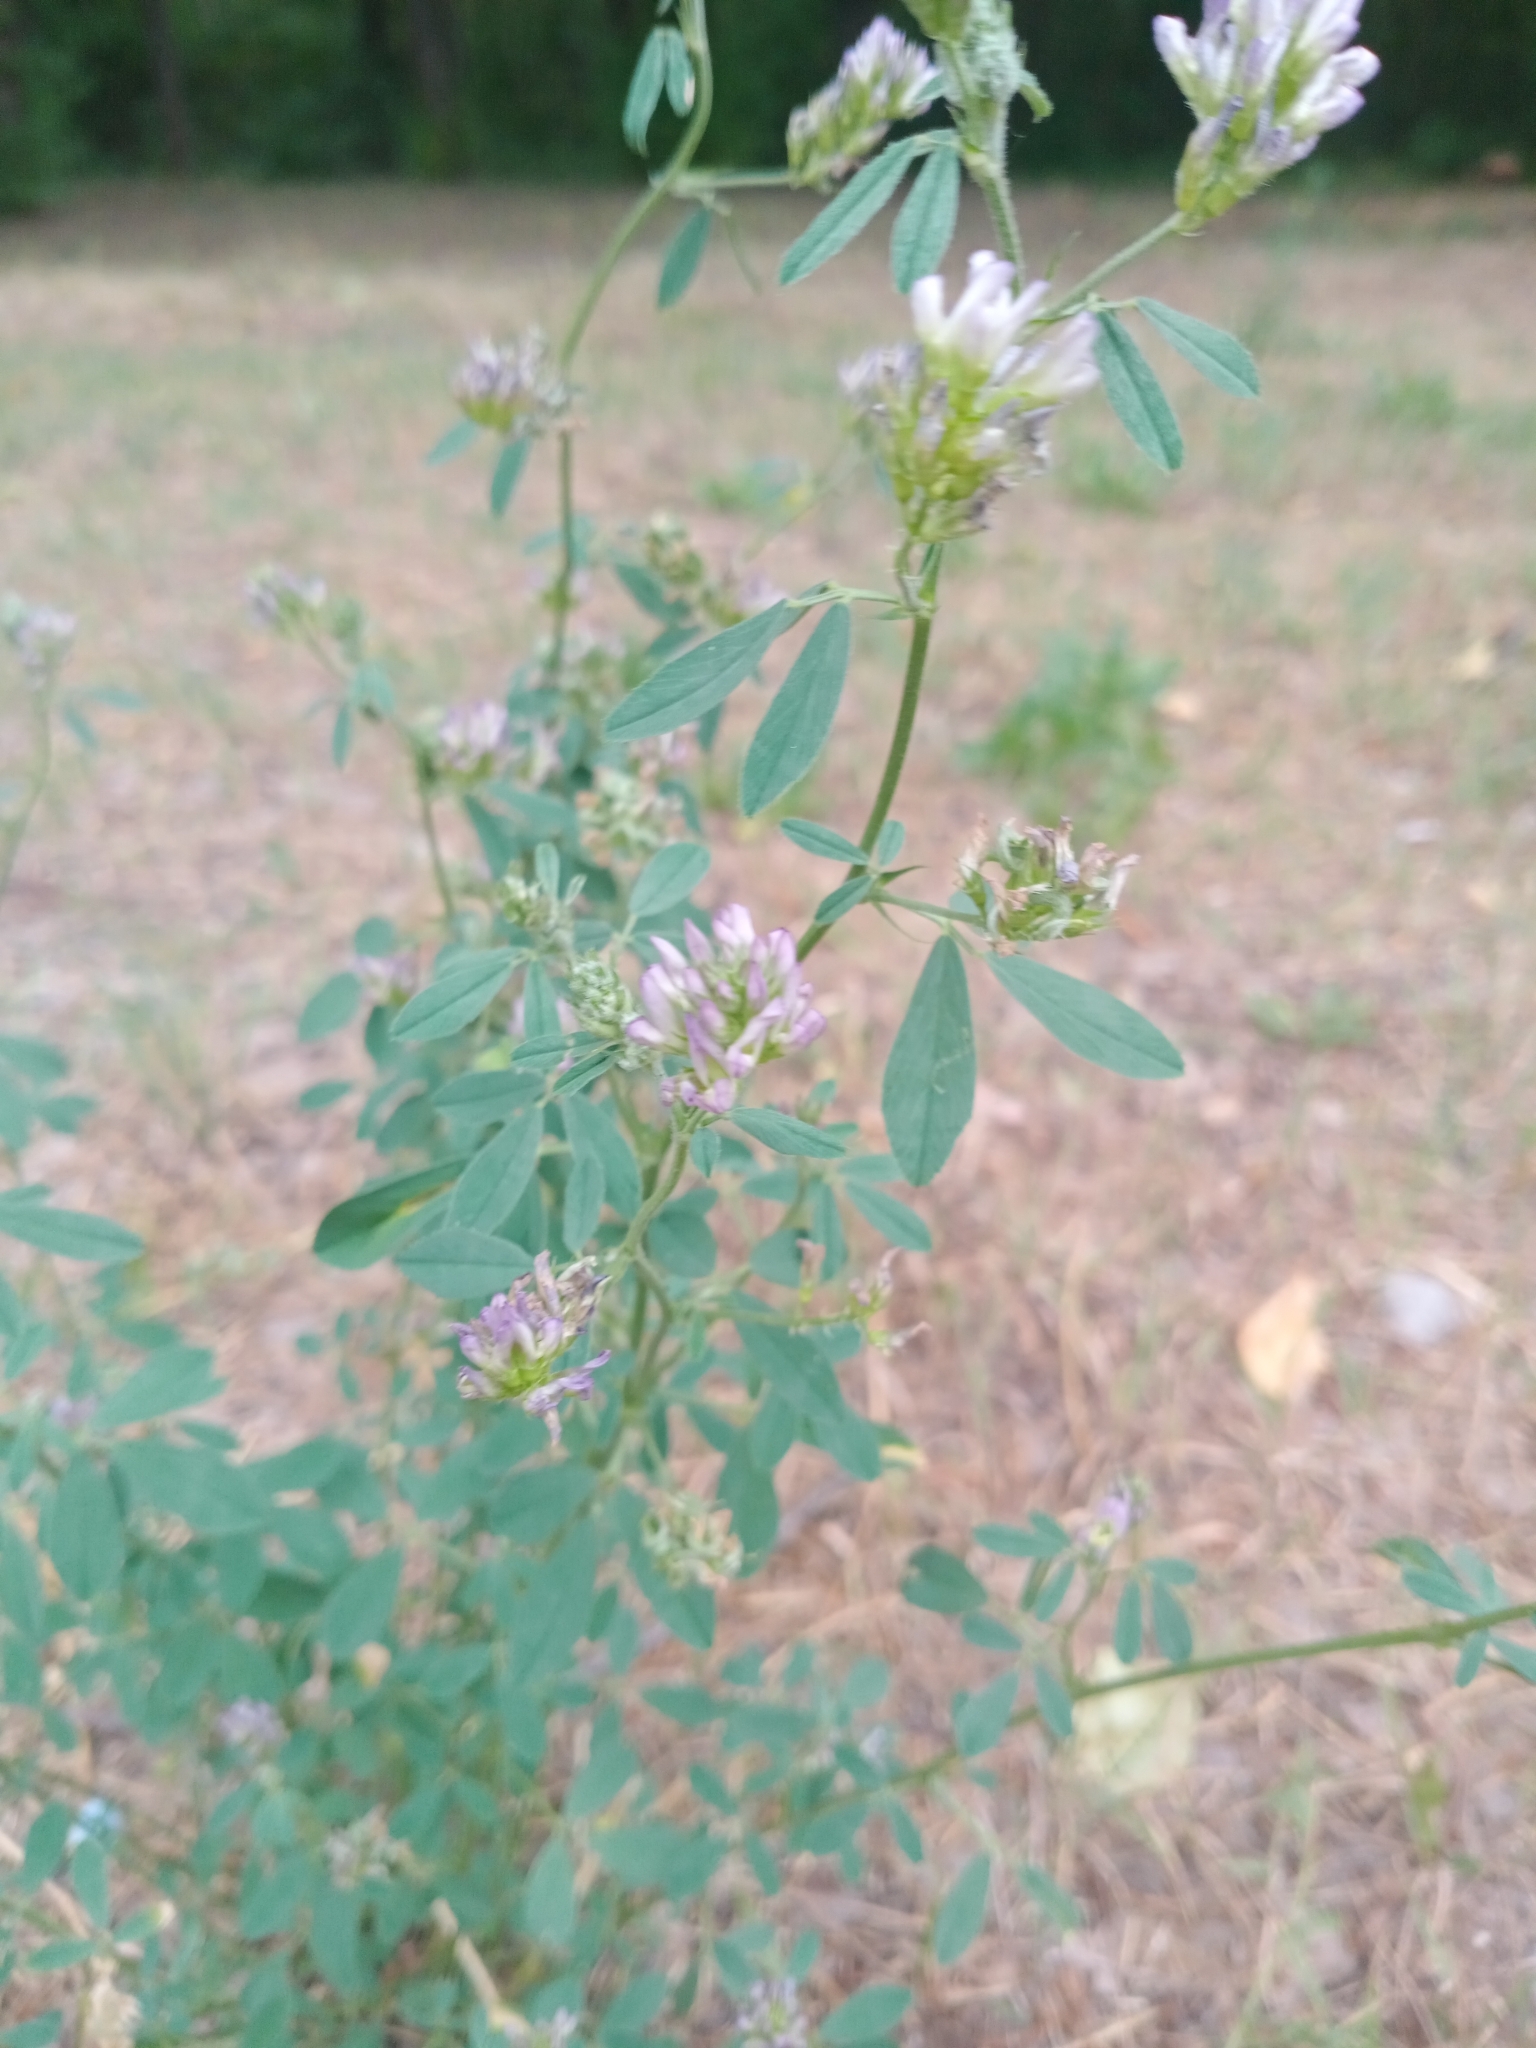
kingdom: Plantae
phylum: Tracheophyta
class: Magnoliopsida
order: Fabales
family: Fabaceae
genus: Medicago
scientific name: Medicago varia
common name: Sand lucerne
